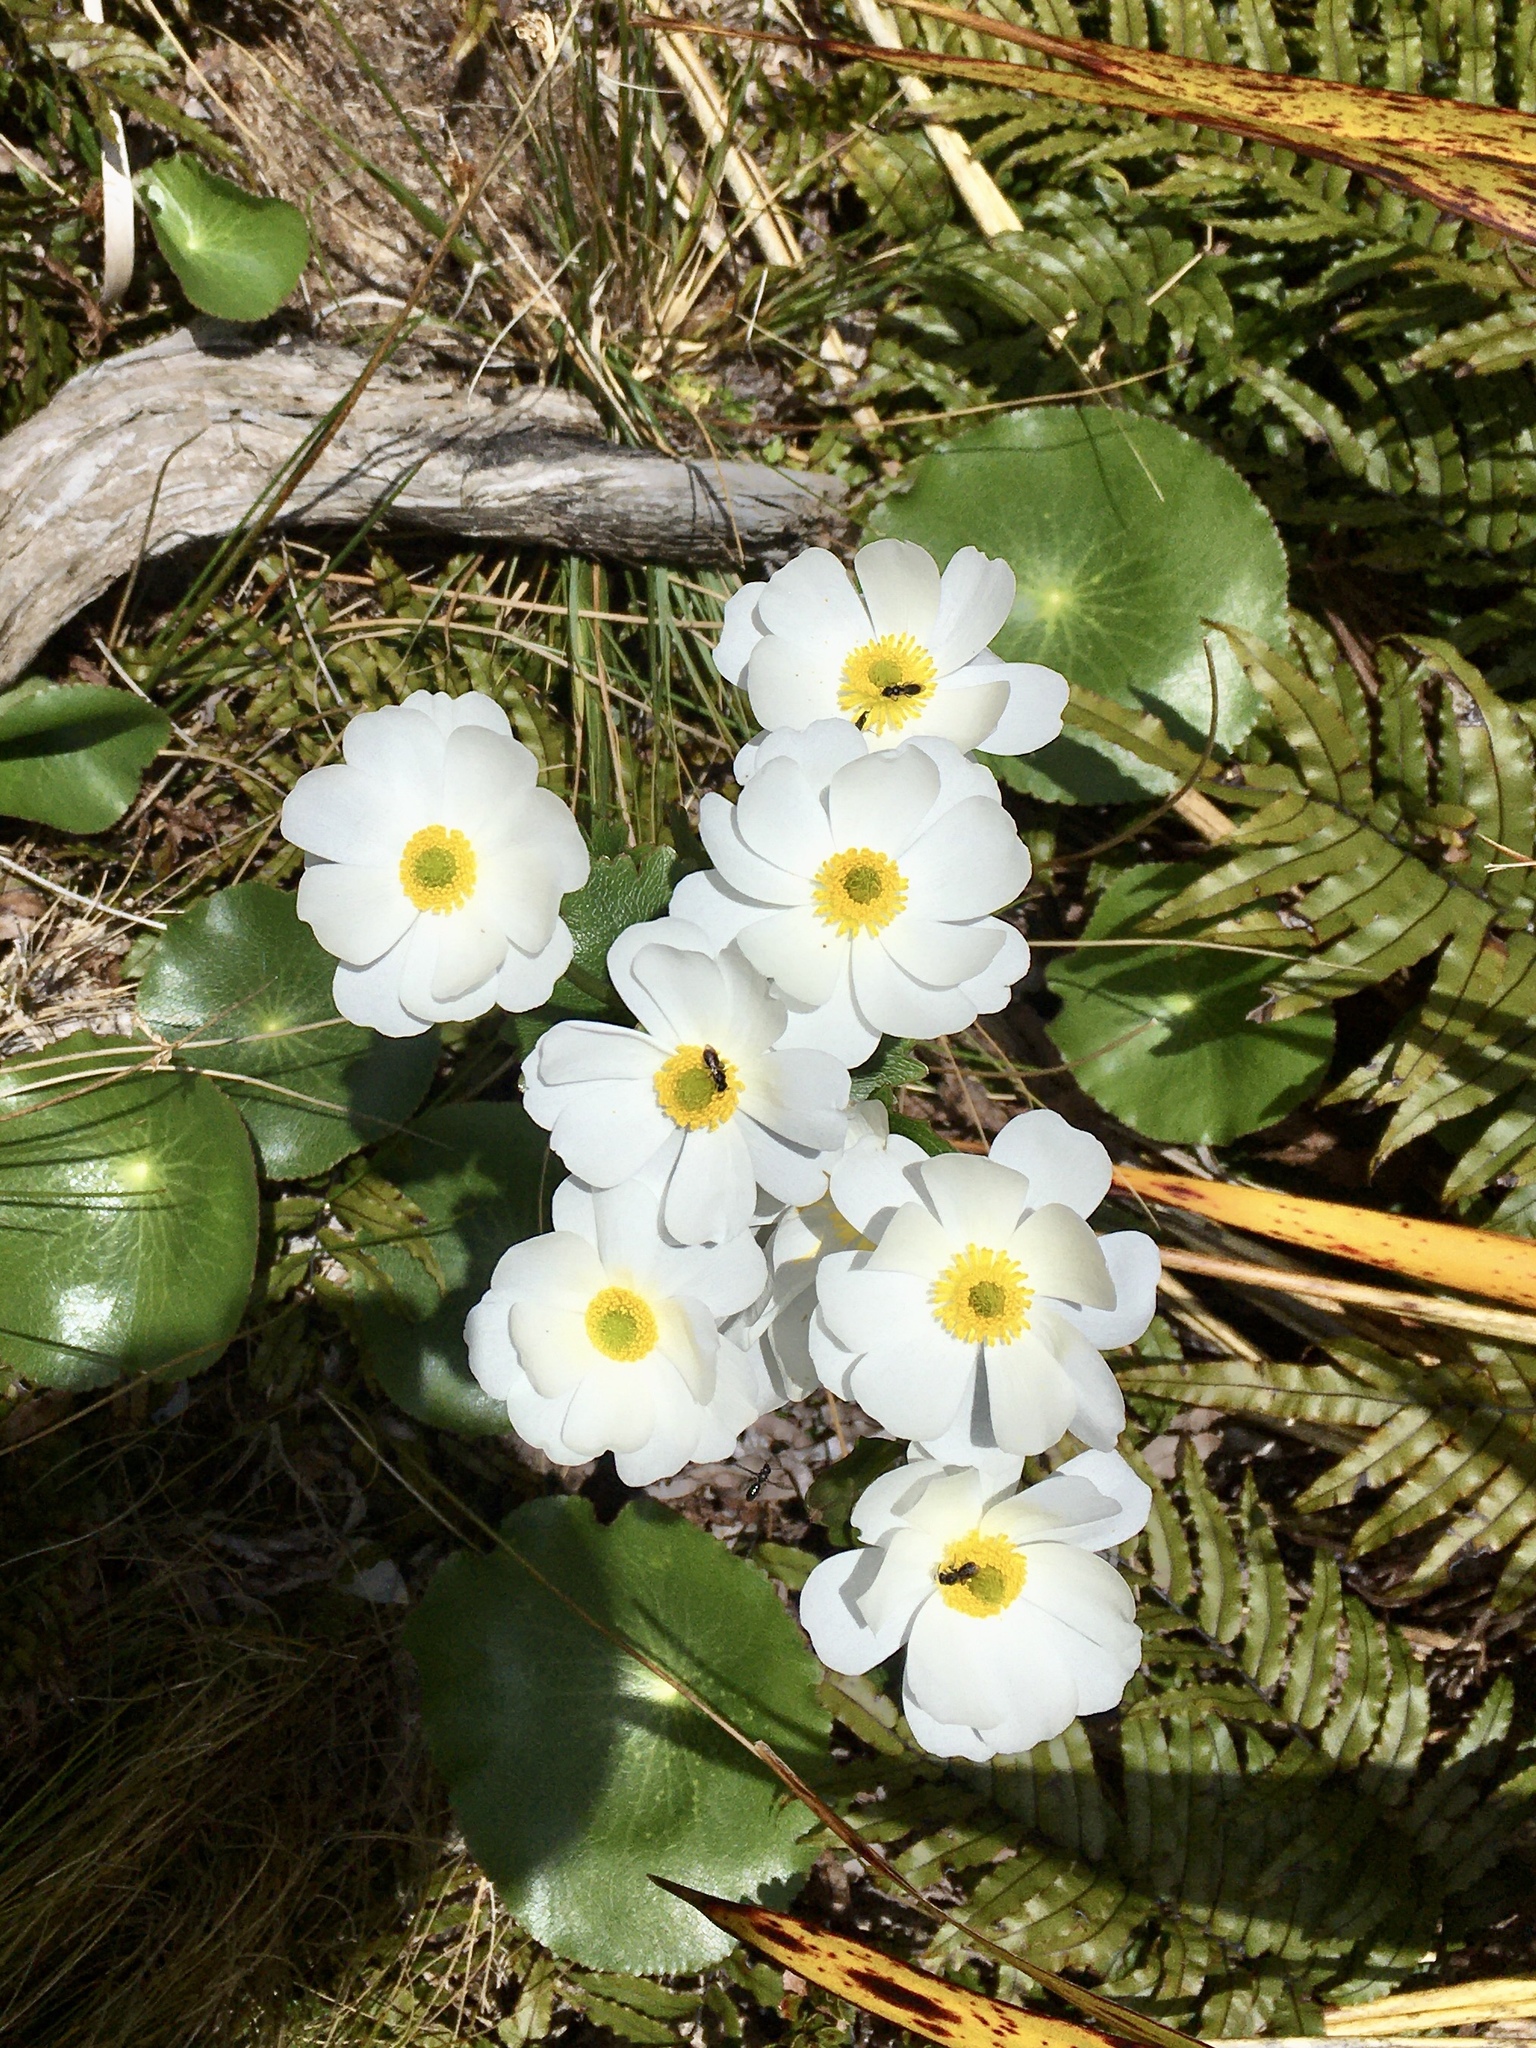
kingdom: Plantae
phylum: Tracheophyta
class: Magnoliopsida
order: Ranunculales
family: Ranunculaceae
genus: Ranunculus
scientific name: Ranunculus lyallii
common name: Mountain-lily
